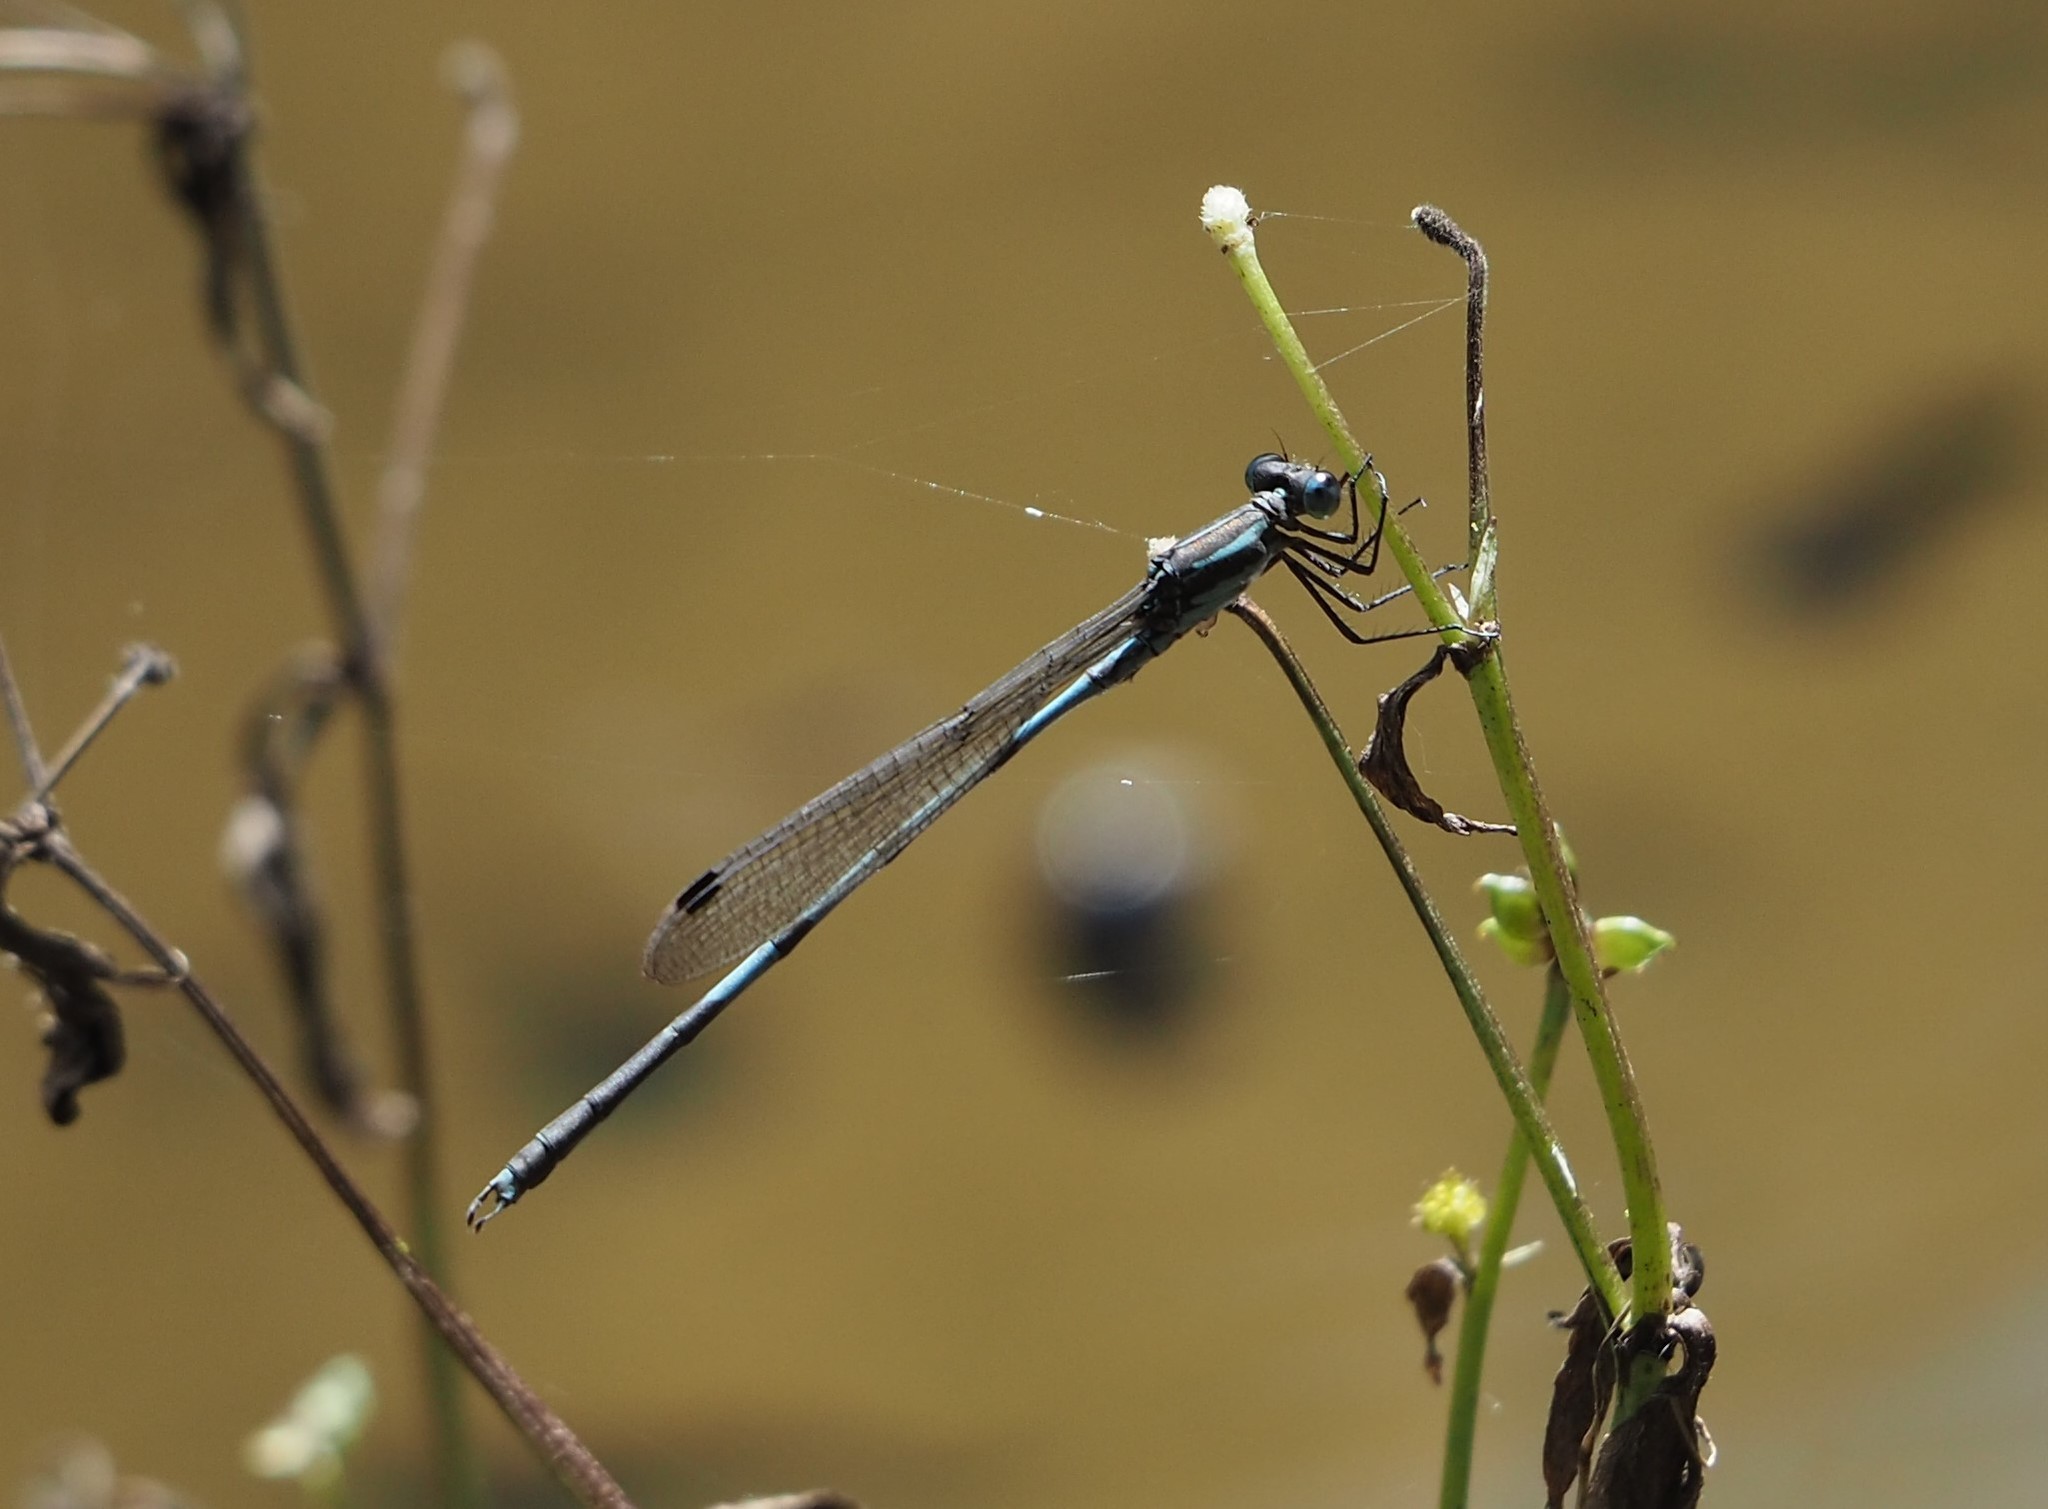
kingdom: Animalia
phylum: Arthropoda
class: Insecta
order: Odonata
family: Lestidae
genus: Indolestes
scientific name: Indolestes cyaneus
